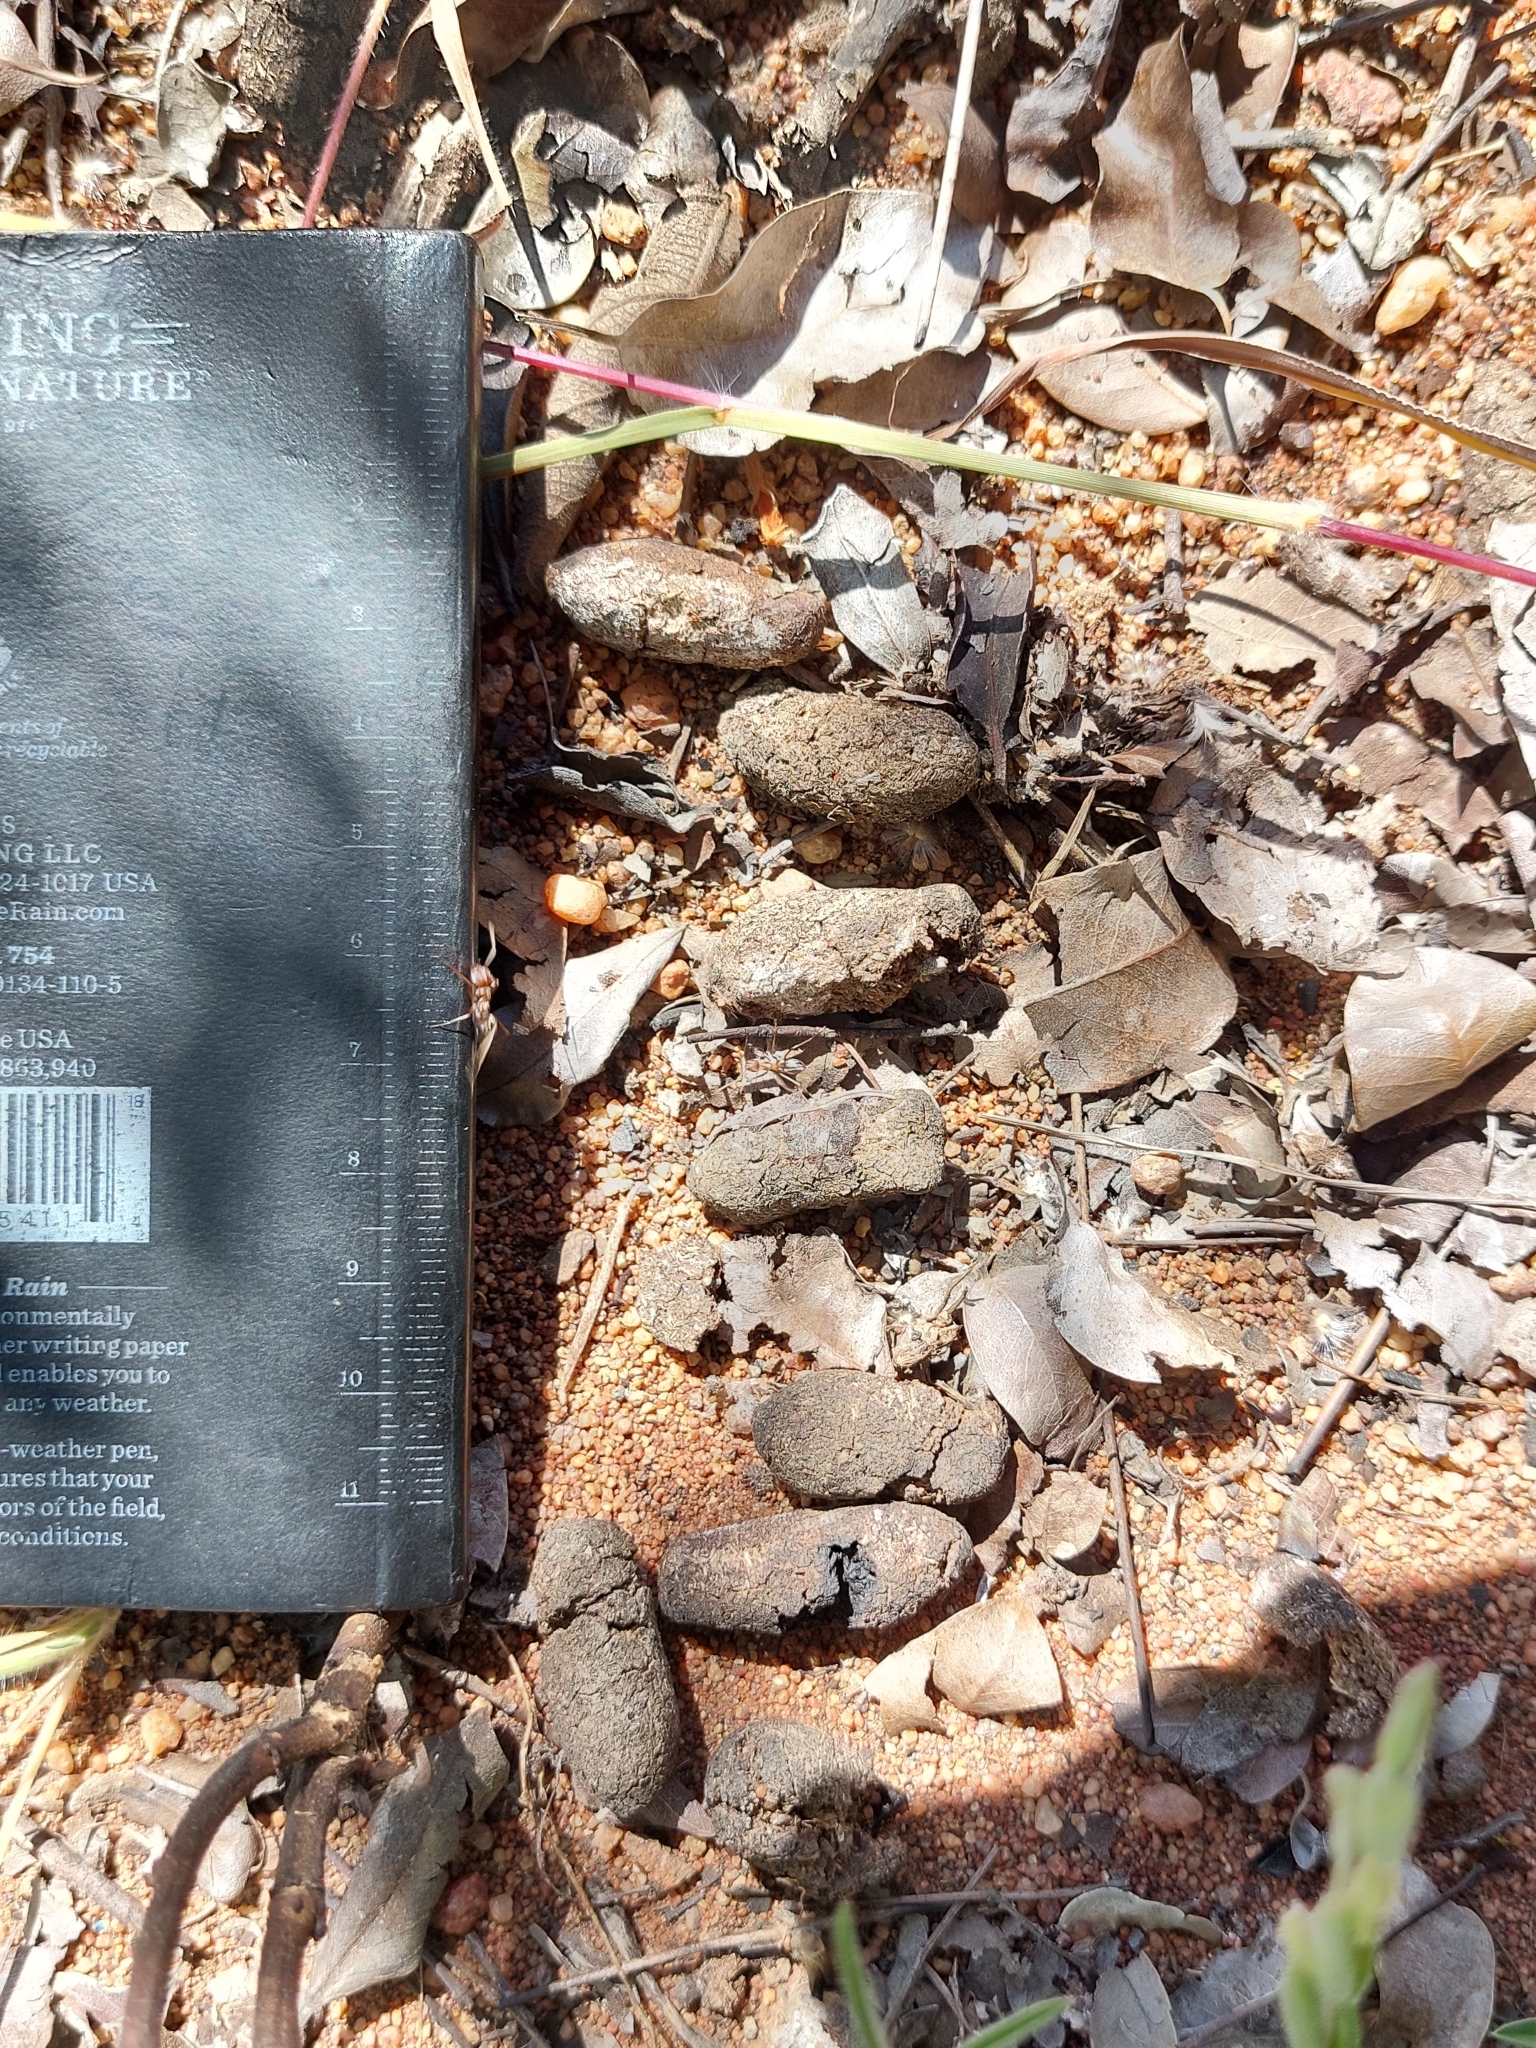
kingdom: Animalia
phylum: Chordata
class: Mammalia
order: Artiodactyla
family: Bovidae
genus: Damaliscus
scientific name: Damaliscus lunatus
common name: Common tsessebe
